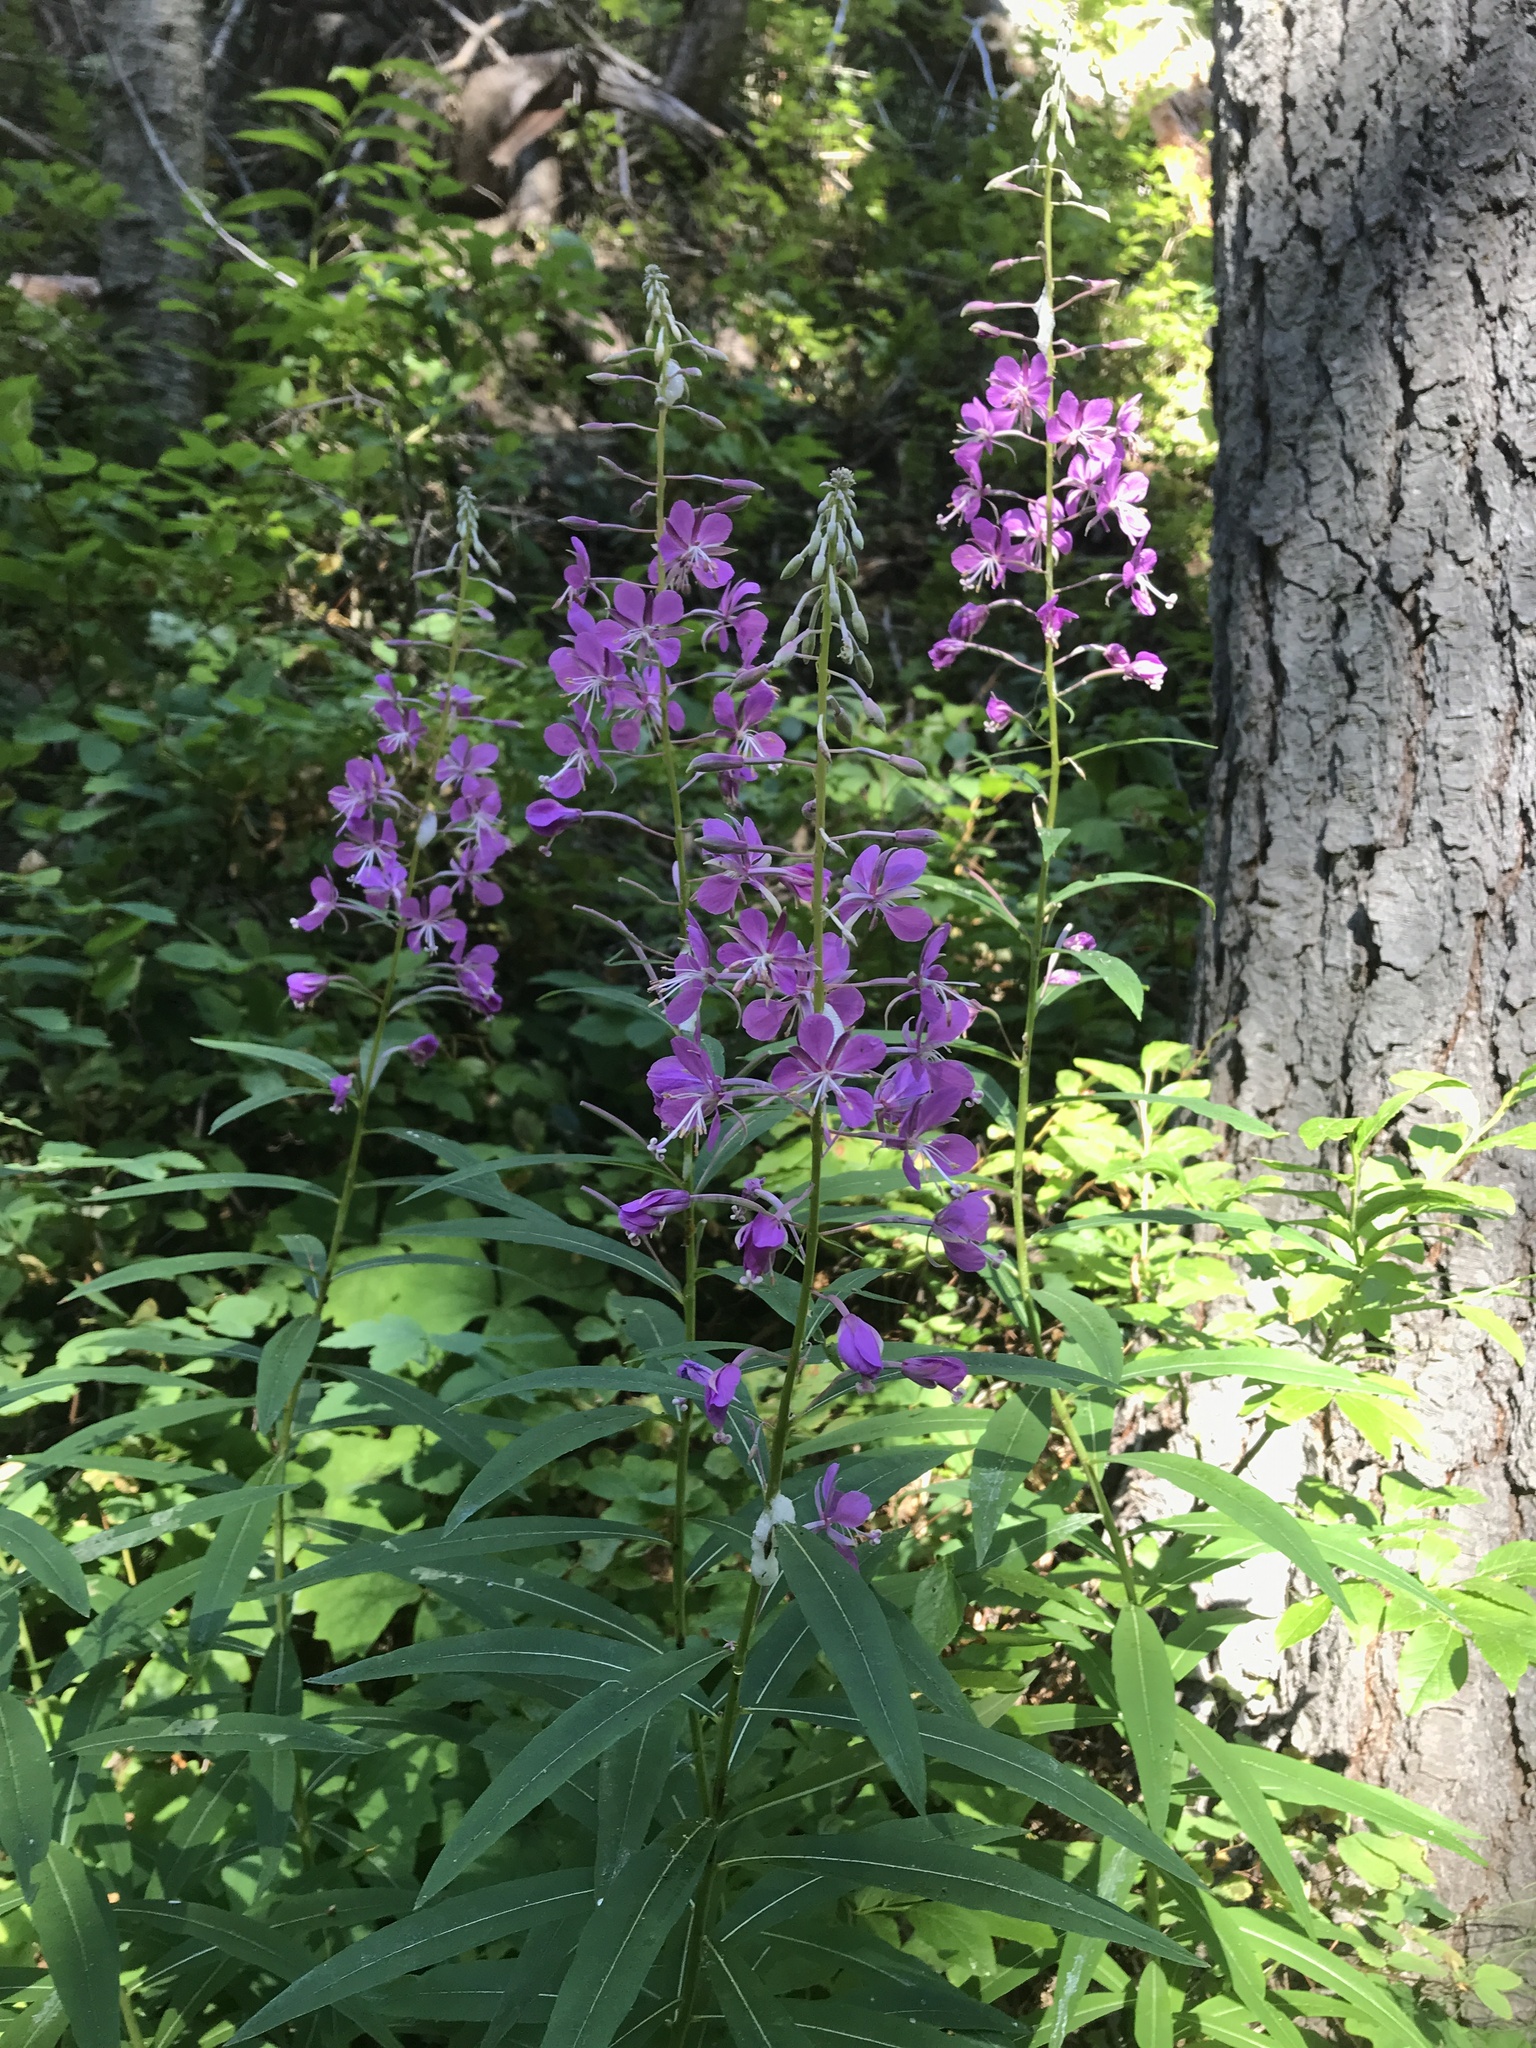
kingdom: Plantae
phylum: Tracheophyta
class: Magnoliopsida
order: Myrtales
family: Onagraceae
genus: Chamaenerion
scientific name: Chamaenerion angustifolium
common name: Fireweed
